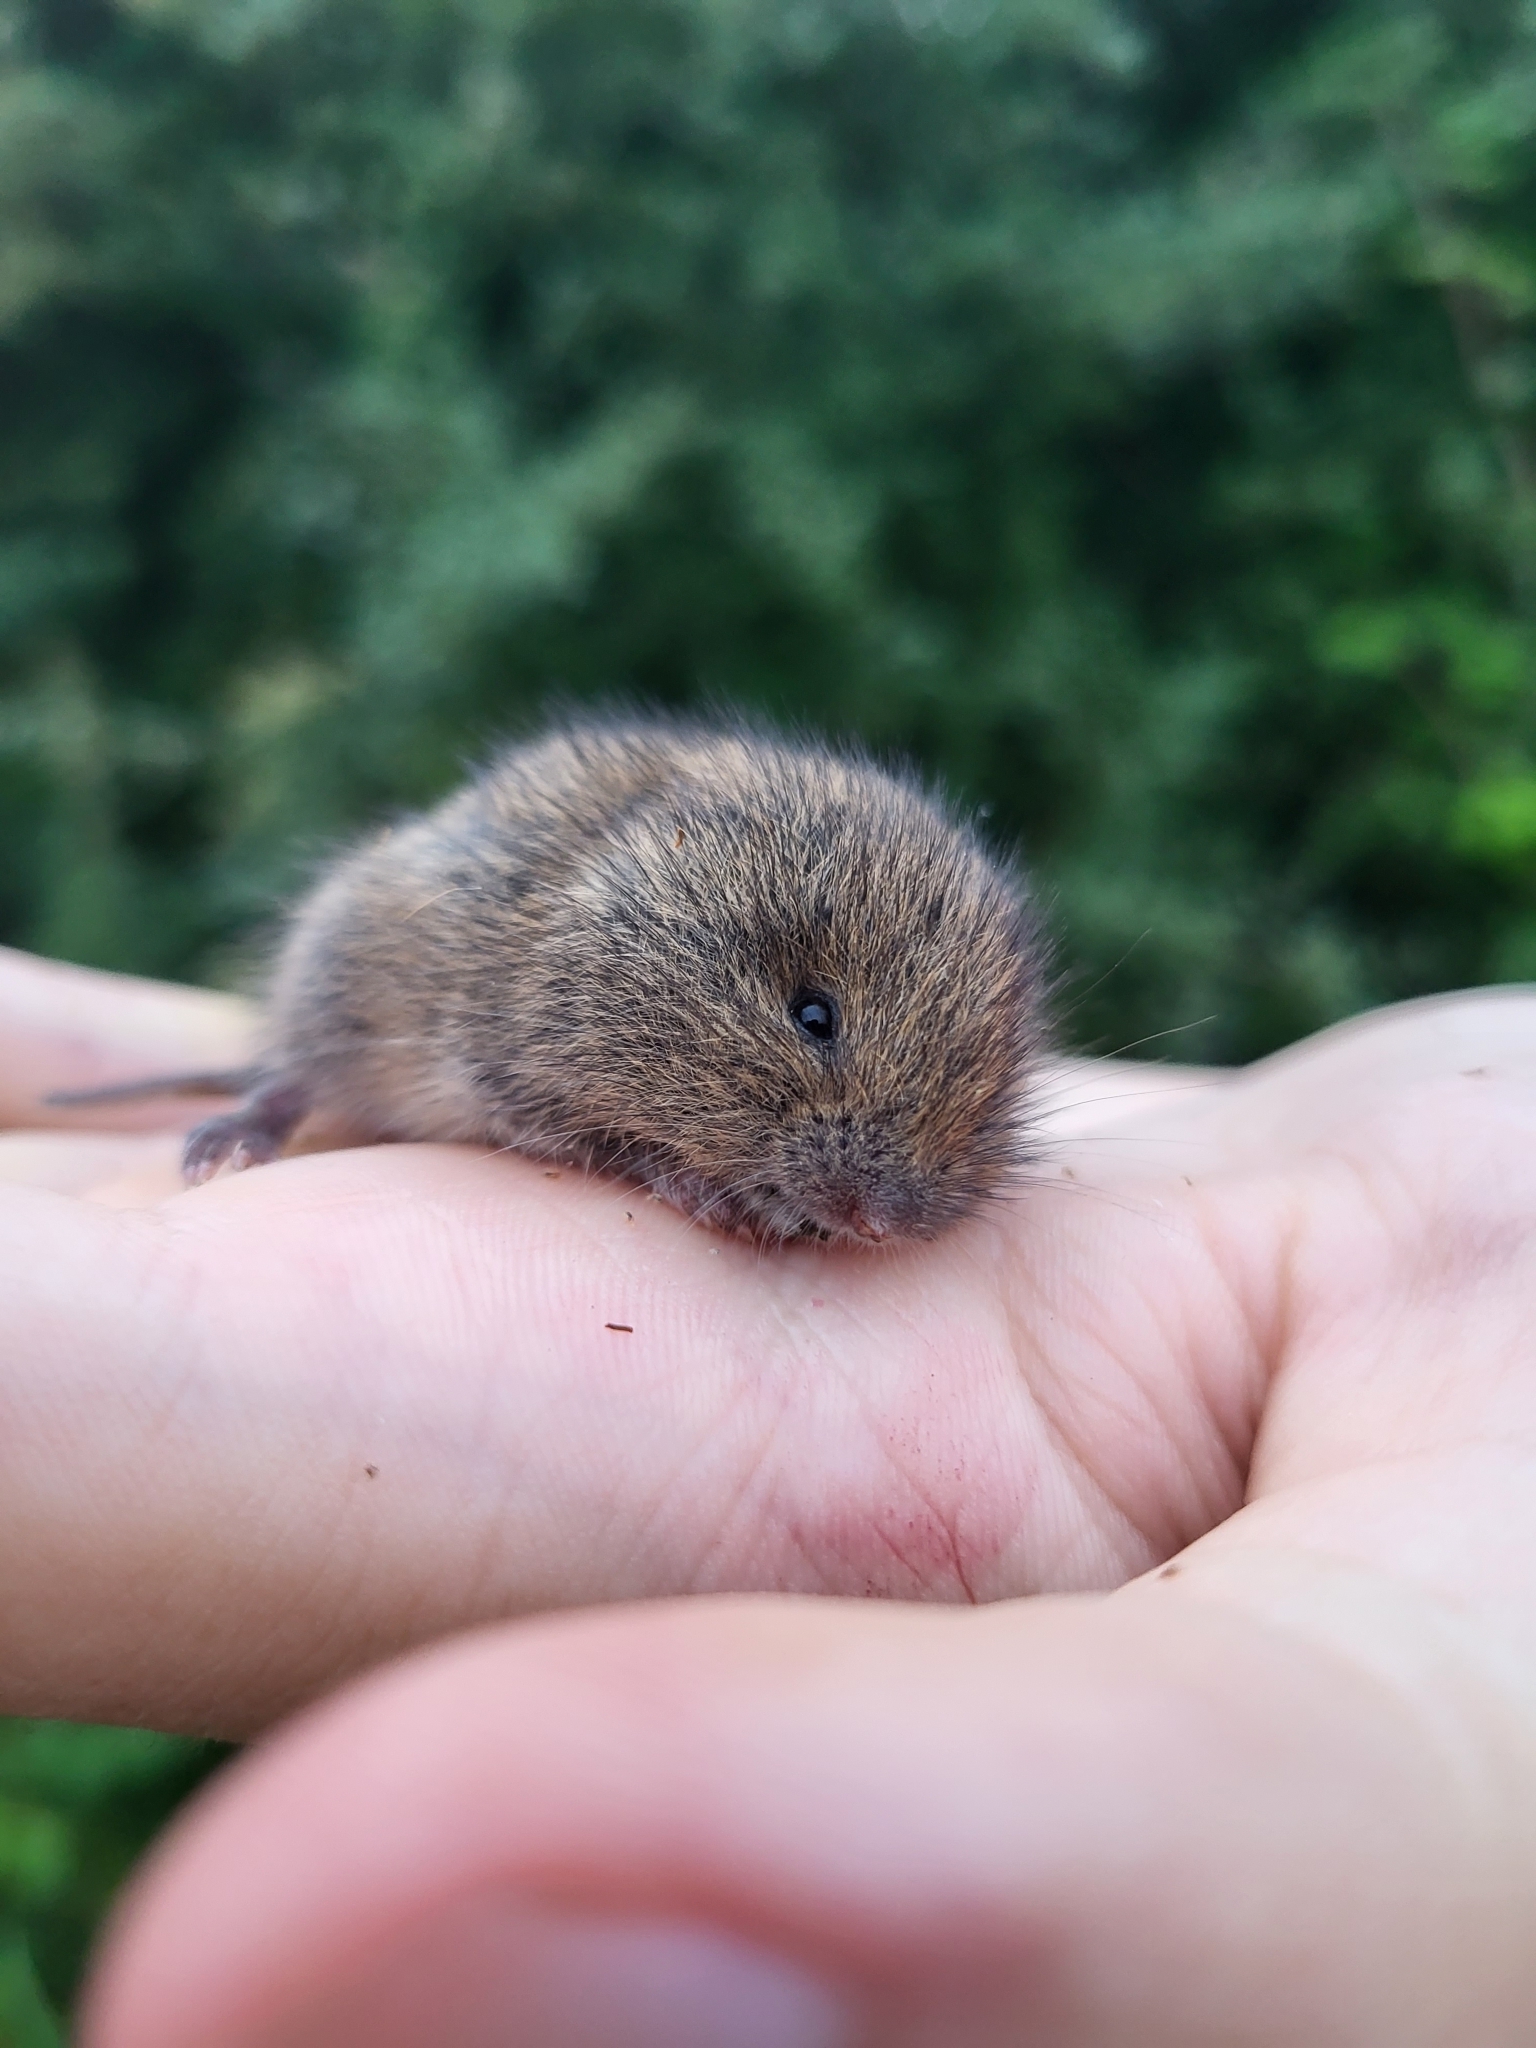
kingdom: Animalia
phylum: Chordata
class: Mammalia
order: Rodentia
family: Cricetidae
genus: Microtus
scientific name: Microtus agrestis
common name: Field vole
